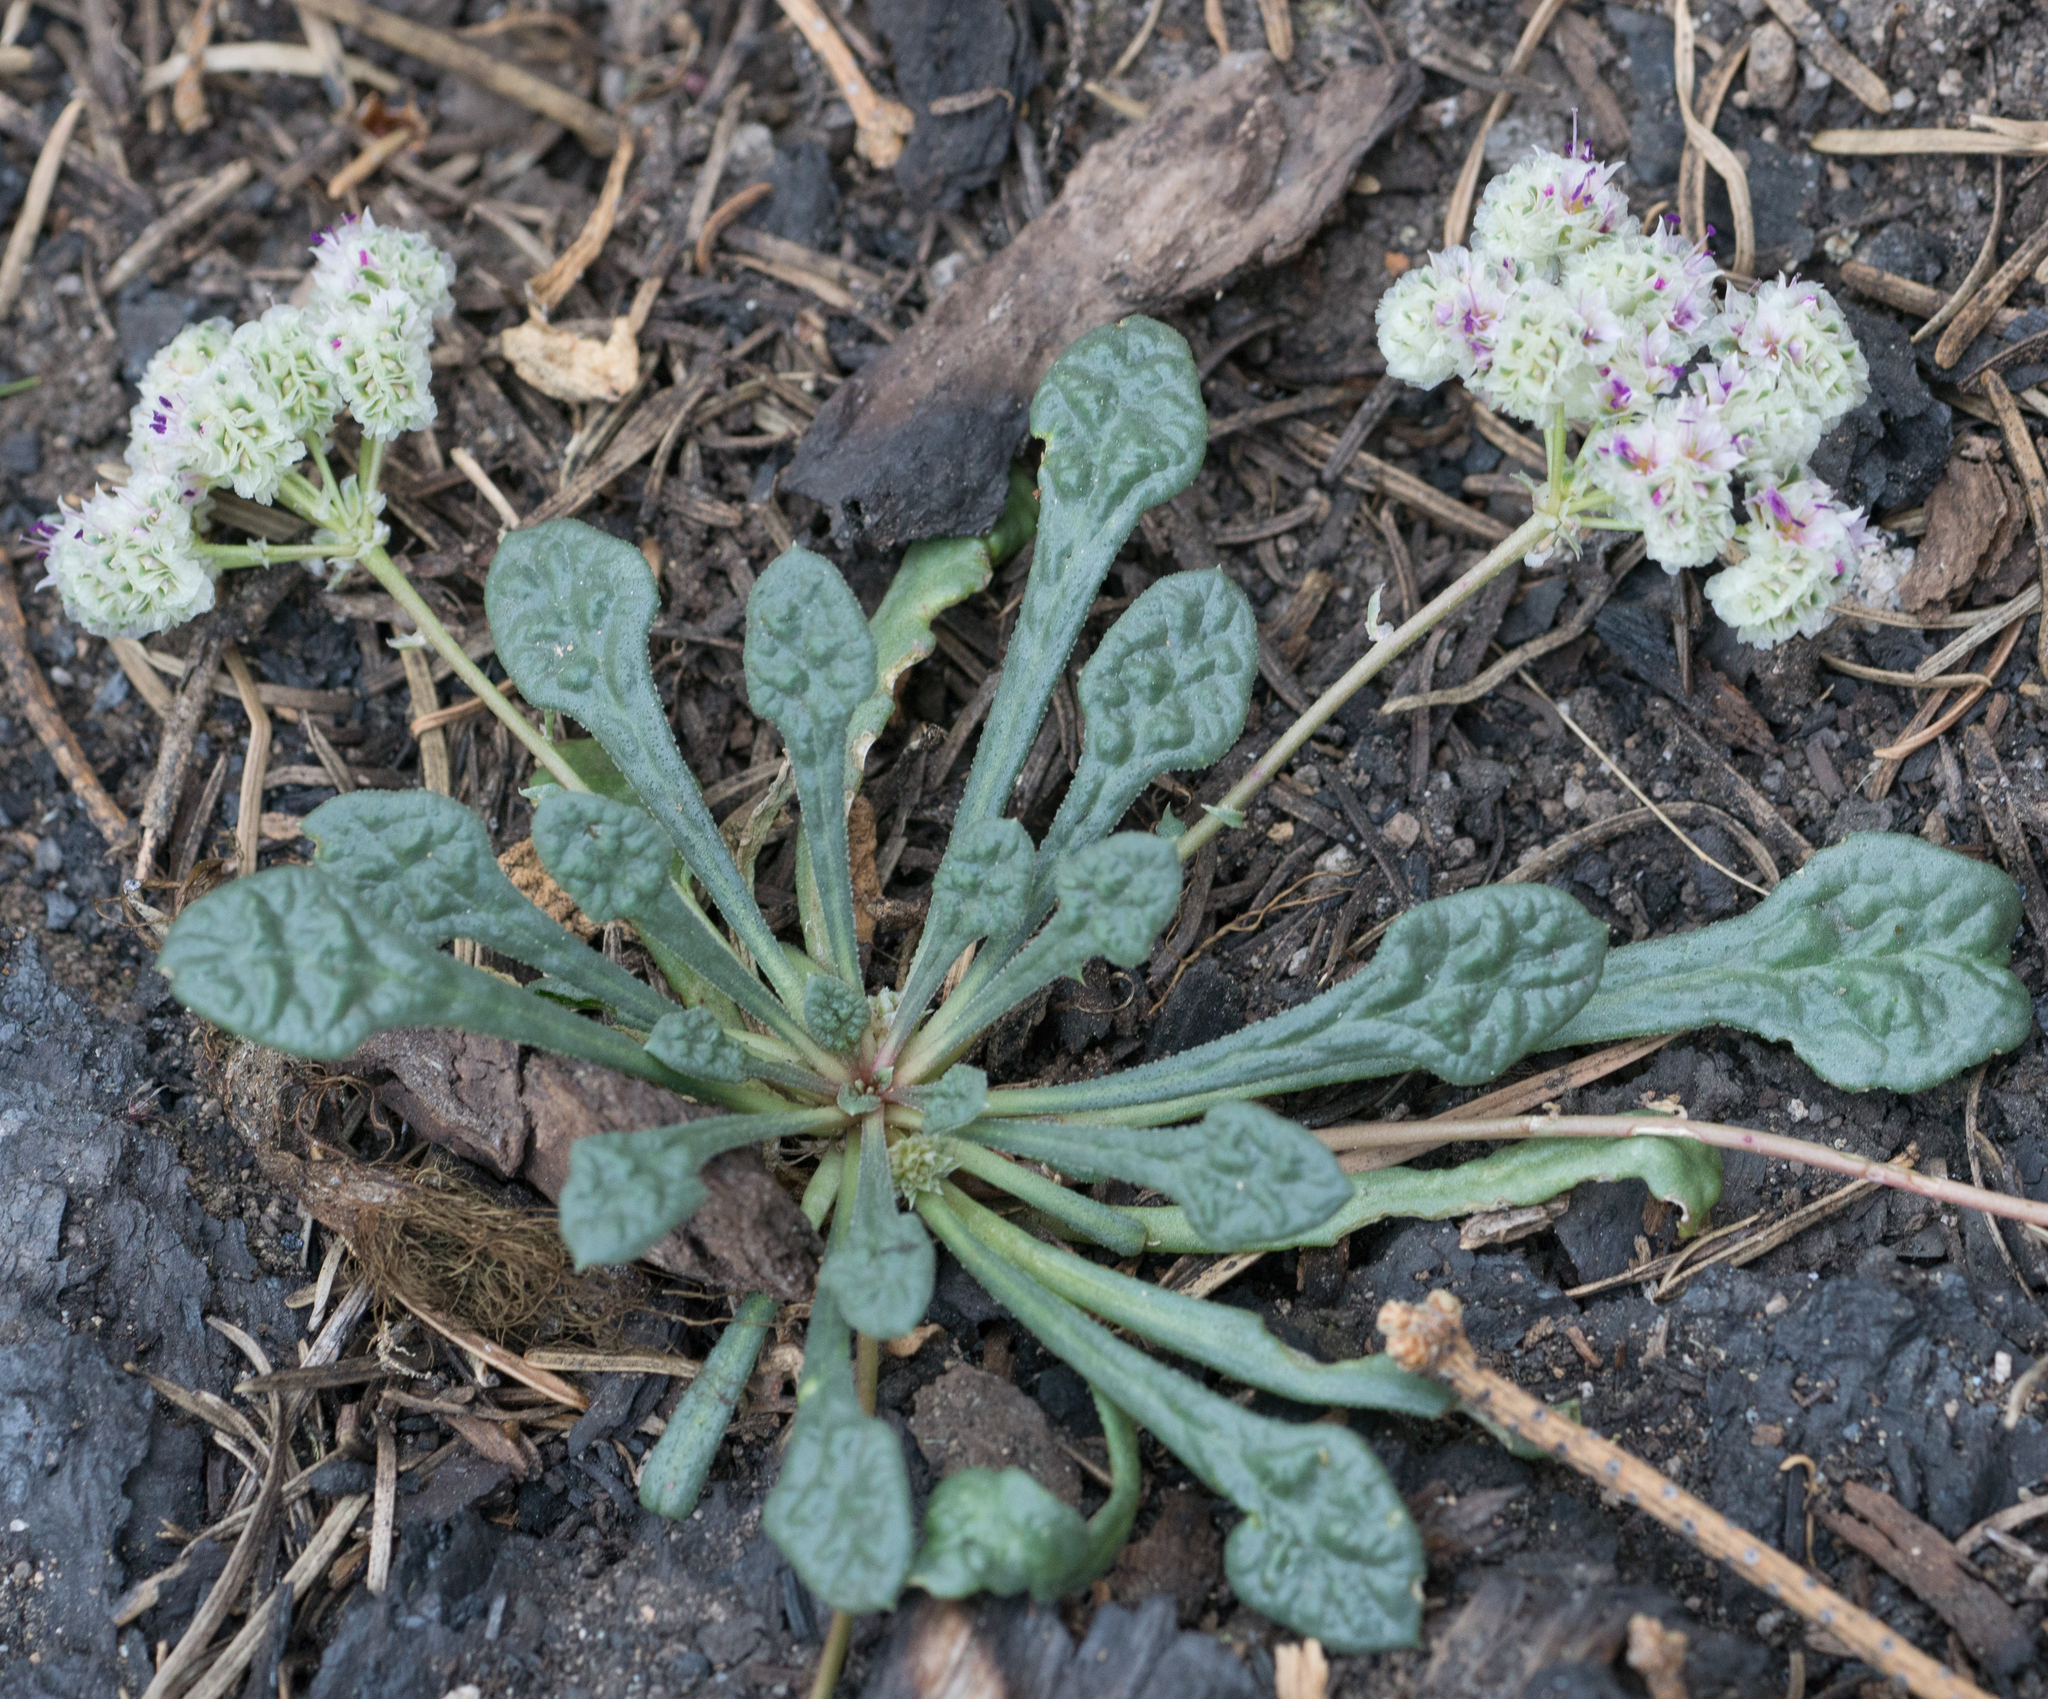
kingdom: Plantae
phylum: Tracheophyta
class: Magnoliopsida
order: Caryophyllales
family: Montiaceae
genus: Calyptridium
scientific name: Calyptridium monospermum
